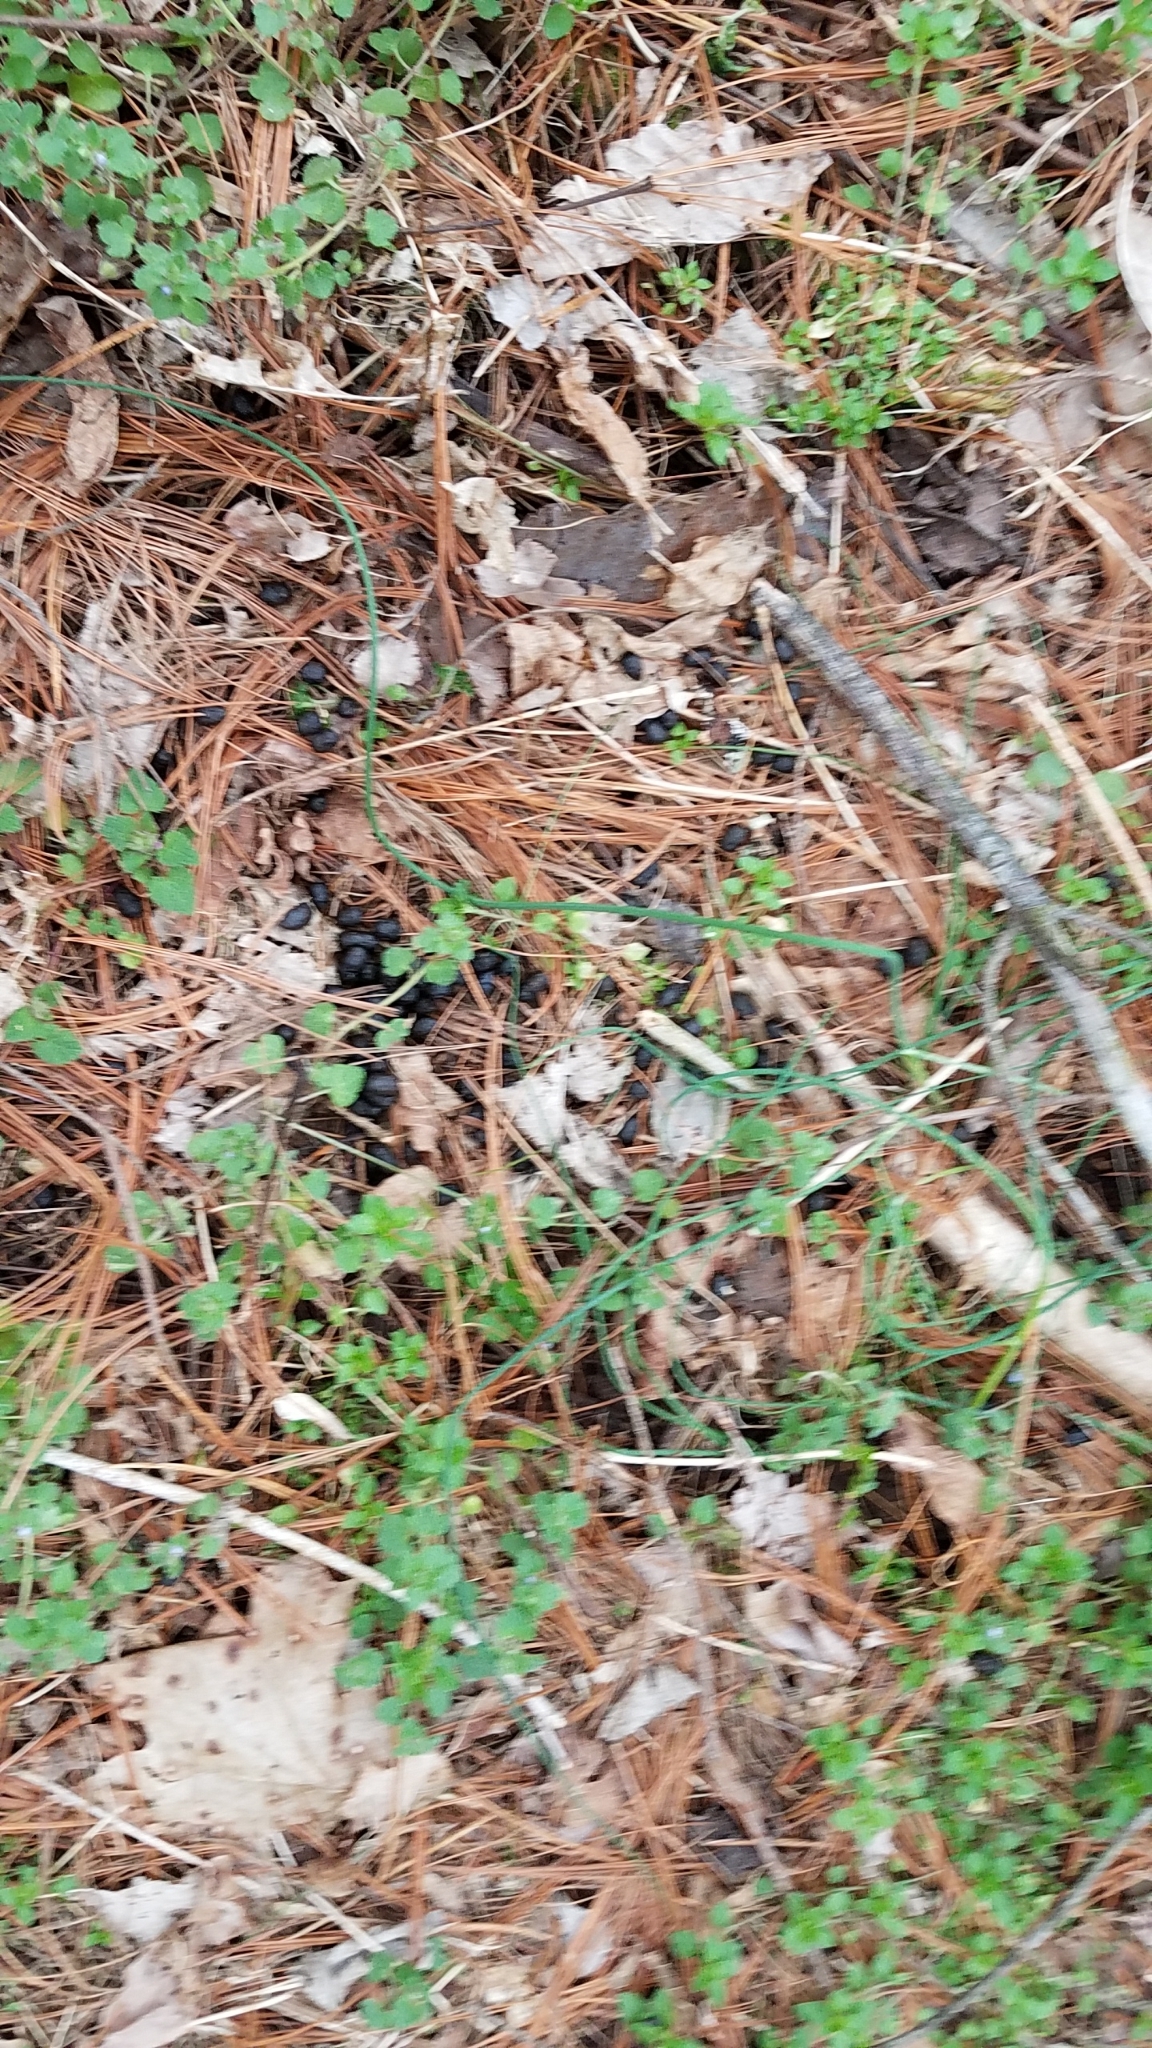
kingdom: Animalia
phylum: Chordata
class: Mammalia
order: Artiodactyla
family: Cervidae
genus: Odocoileus
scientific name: Odocoileus virginianus
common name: White-tailed deer
